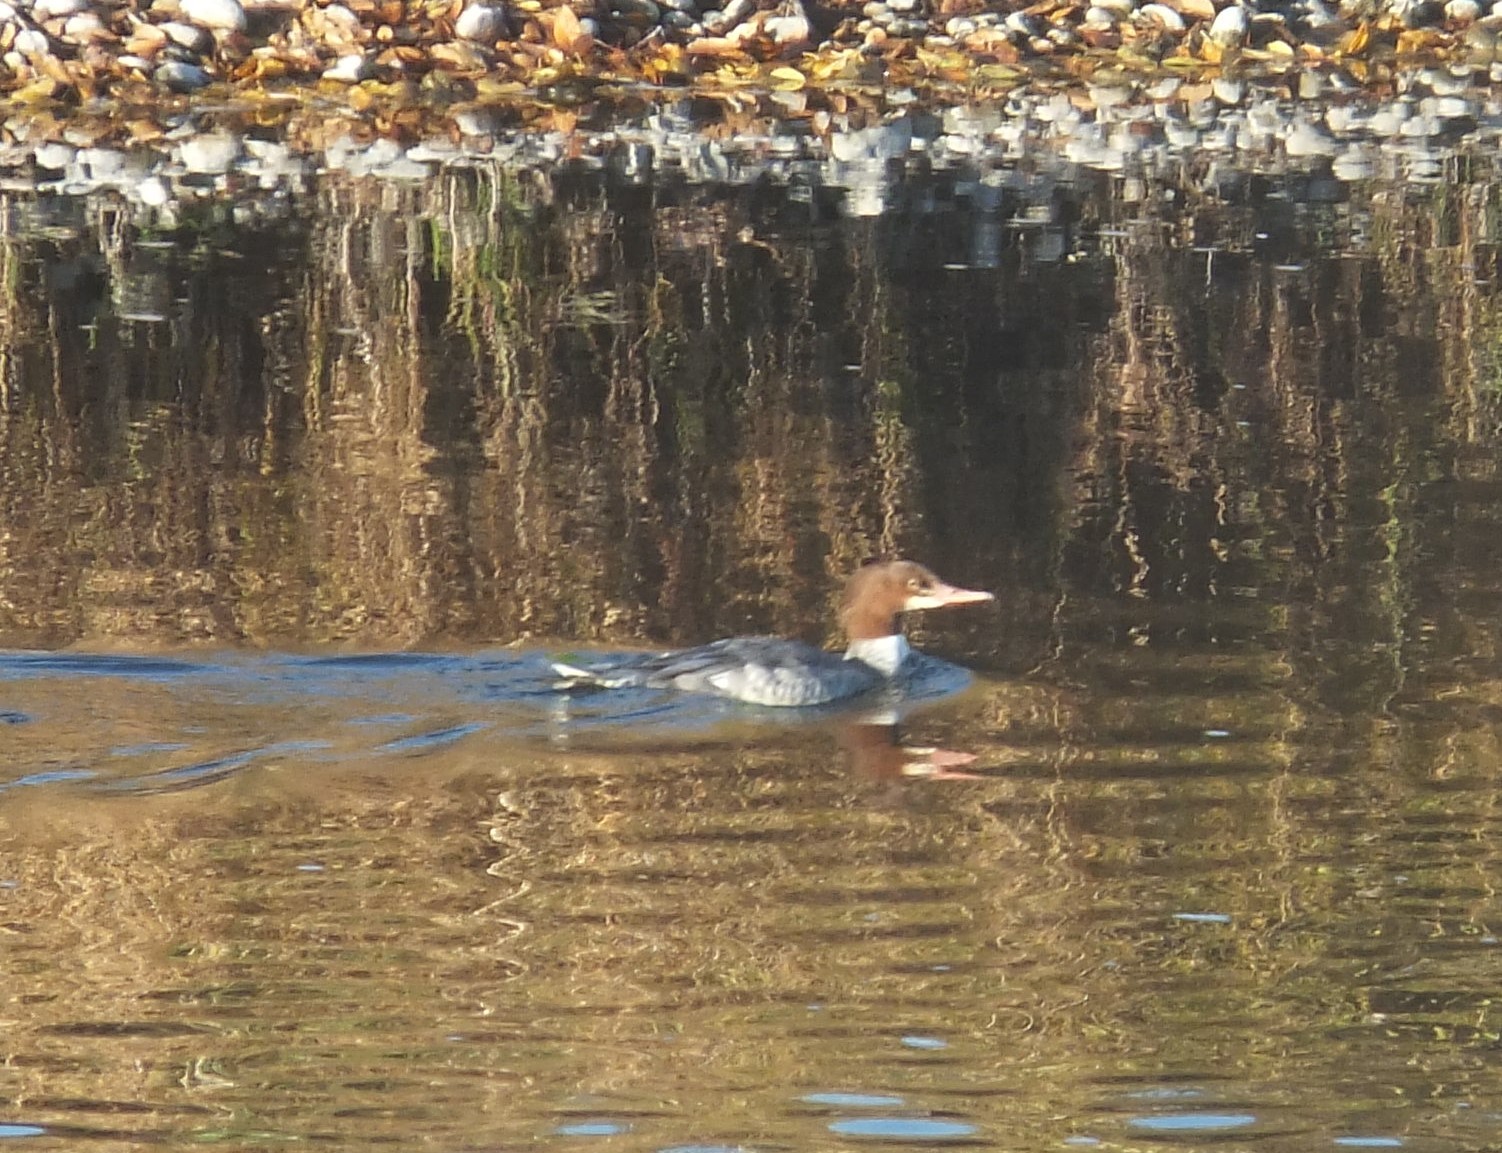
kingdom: Animalia
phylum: Chordata
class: Aves
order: Anseriformes
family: Anatidae
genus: Mergus
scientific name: Mergus merganser
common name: Common merganser
